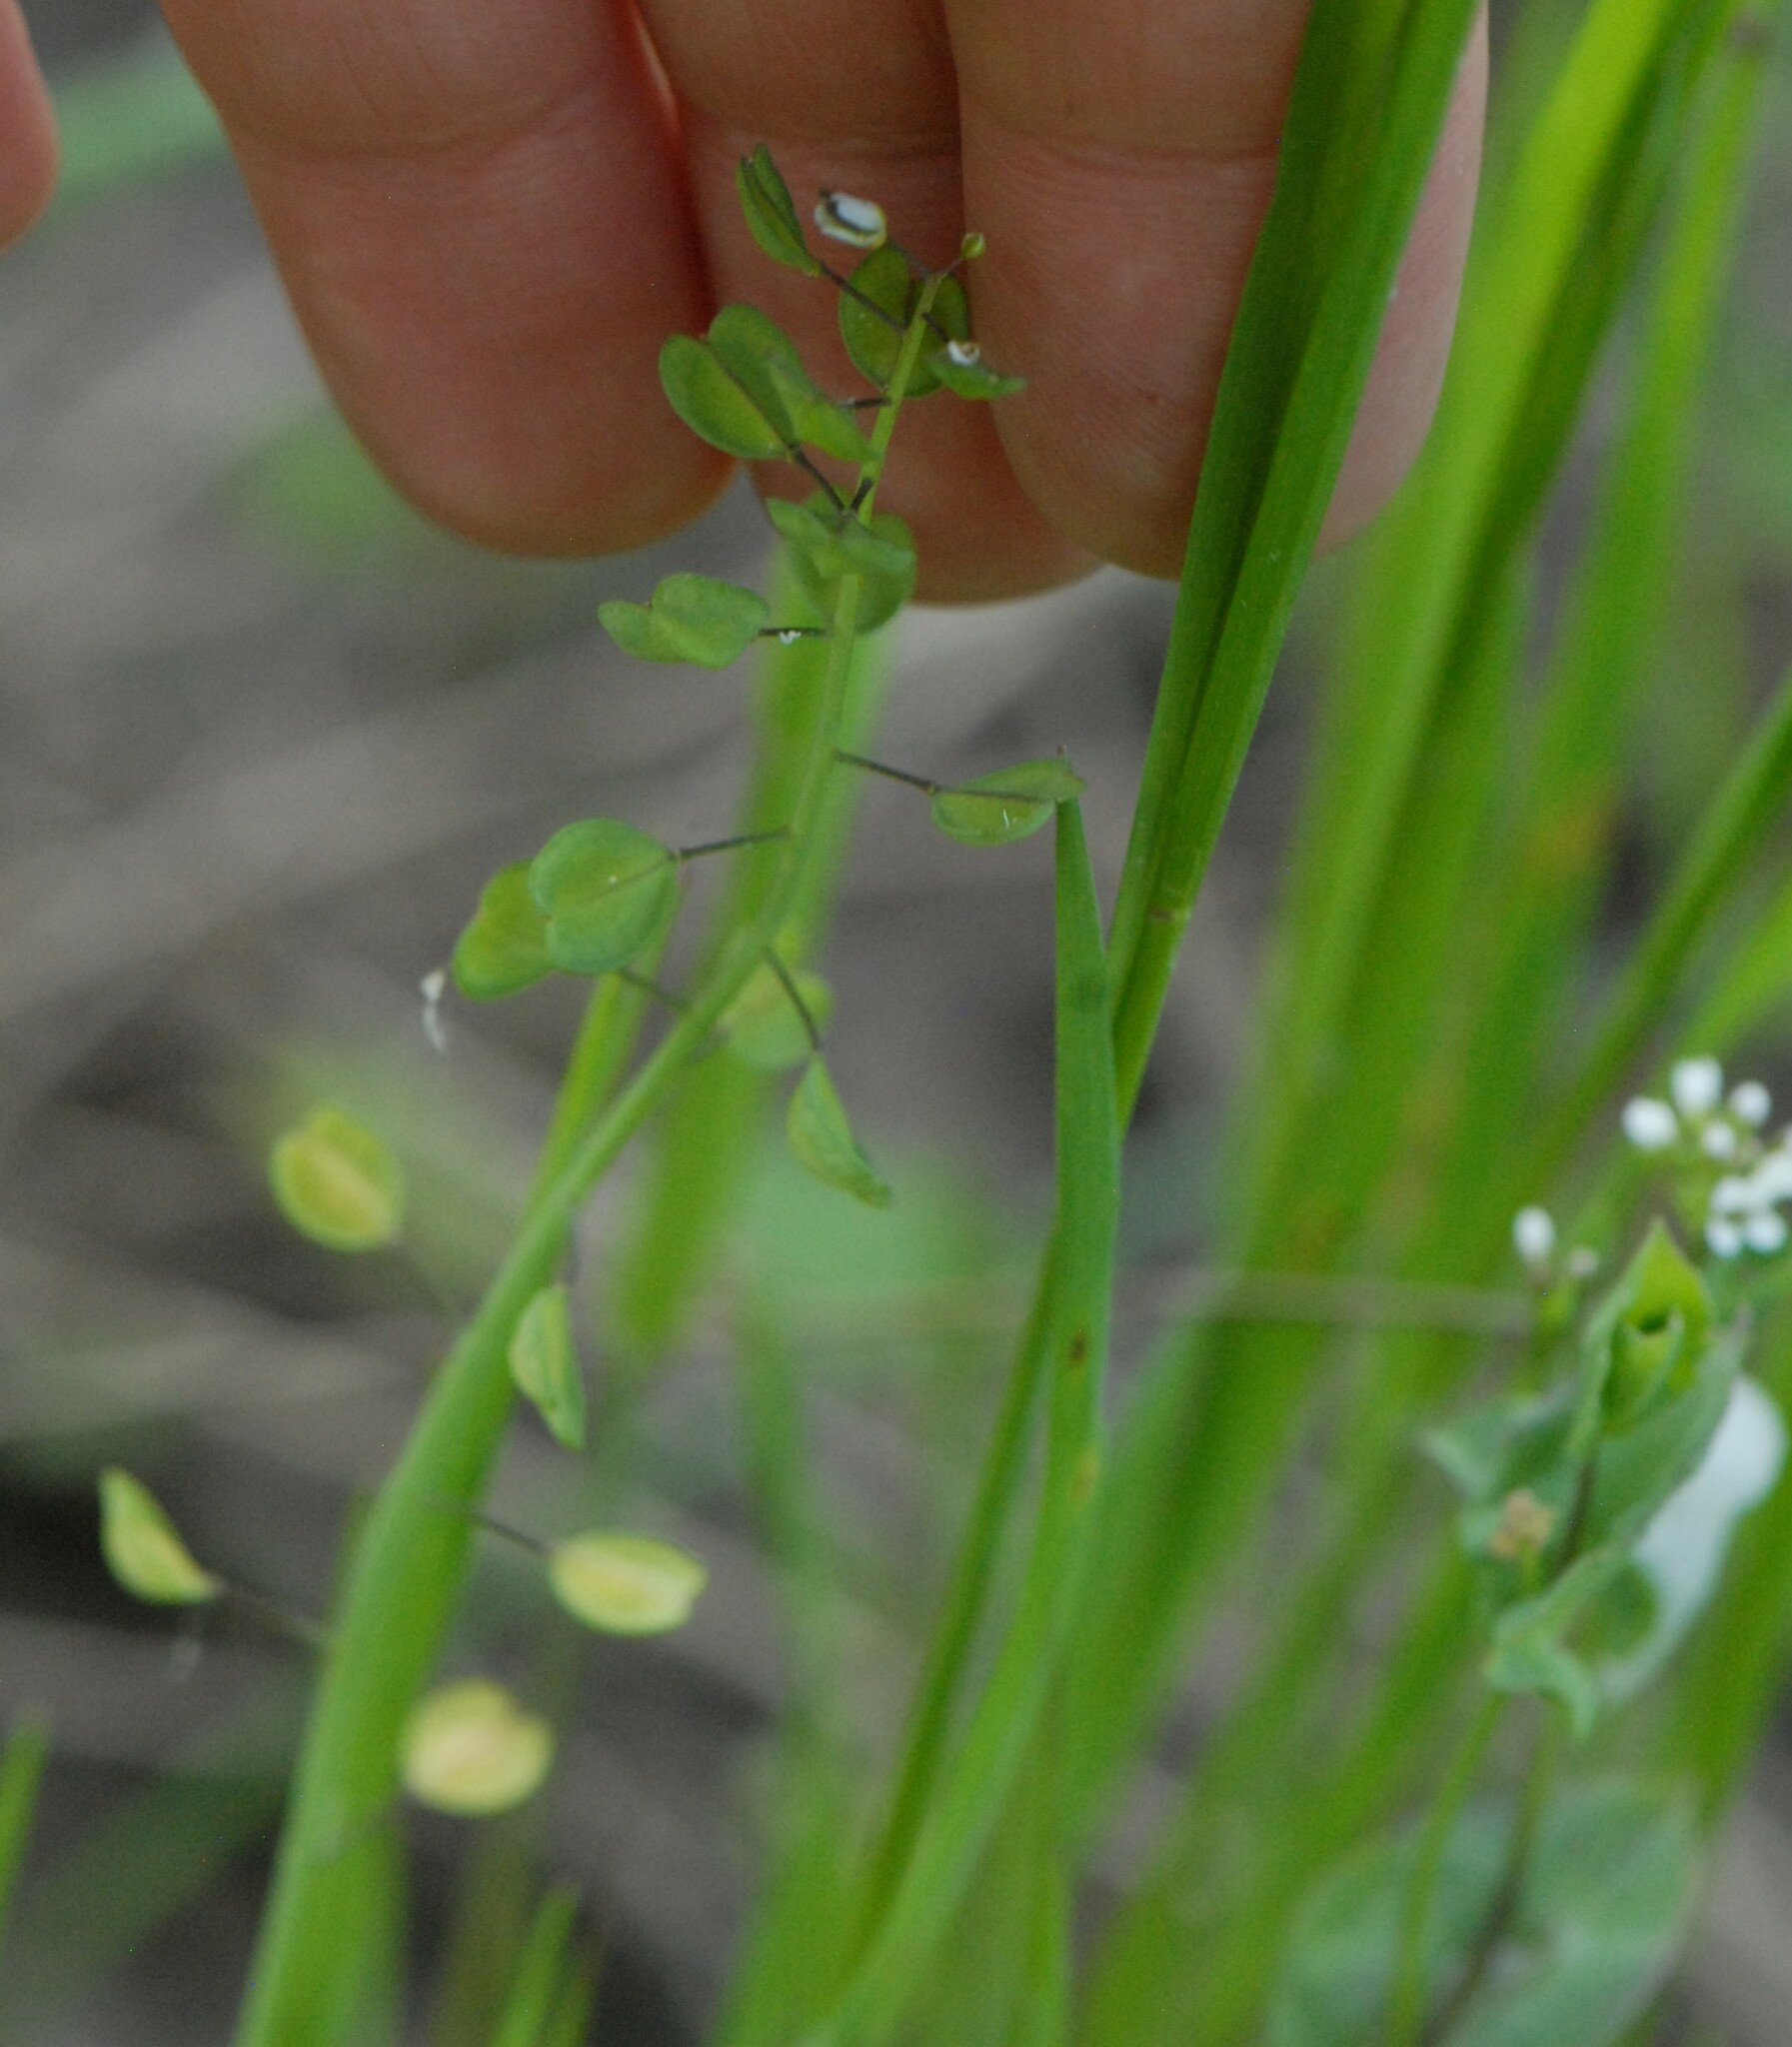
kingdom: Plantae
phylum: Tracheophyta
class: Magnoliopsida
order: Brassicales
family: Brassicaceae
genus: Noccaea
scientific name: Noccaea perfoliata
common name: Perfoliate pennycress
